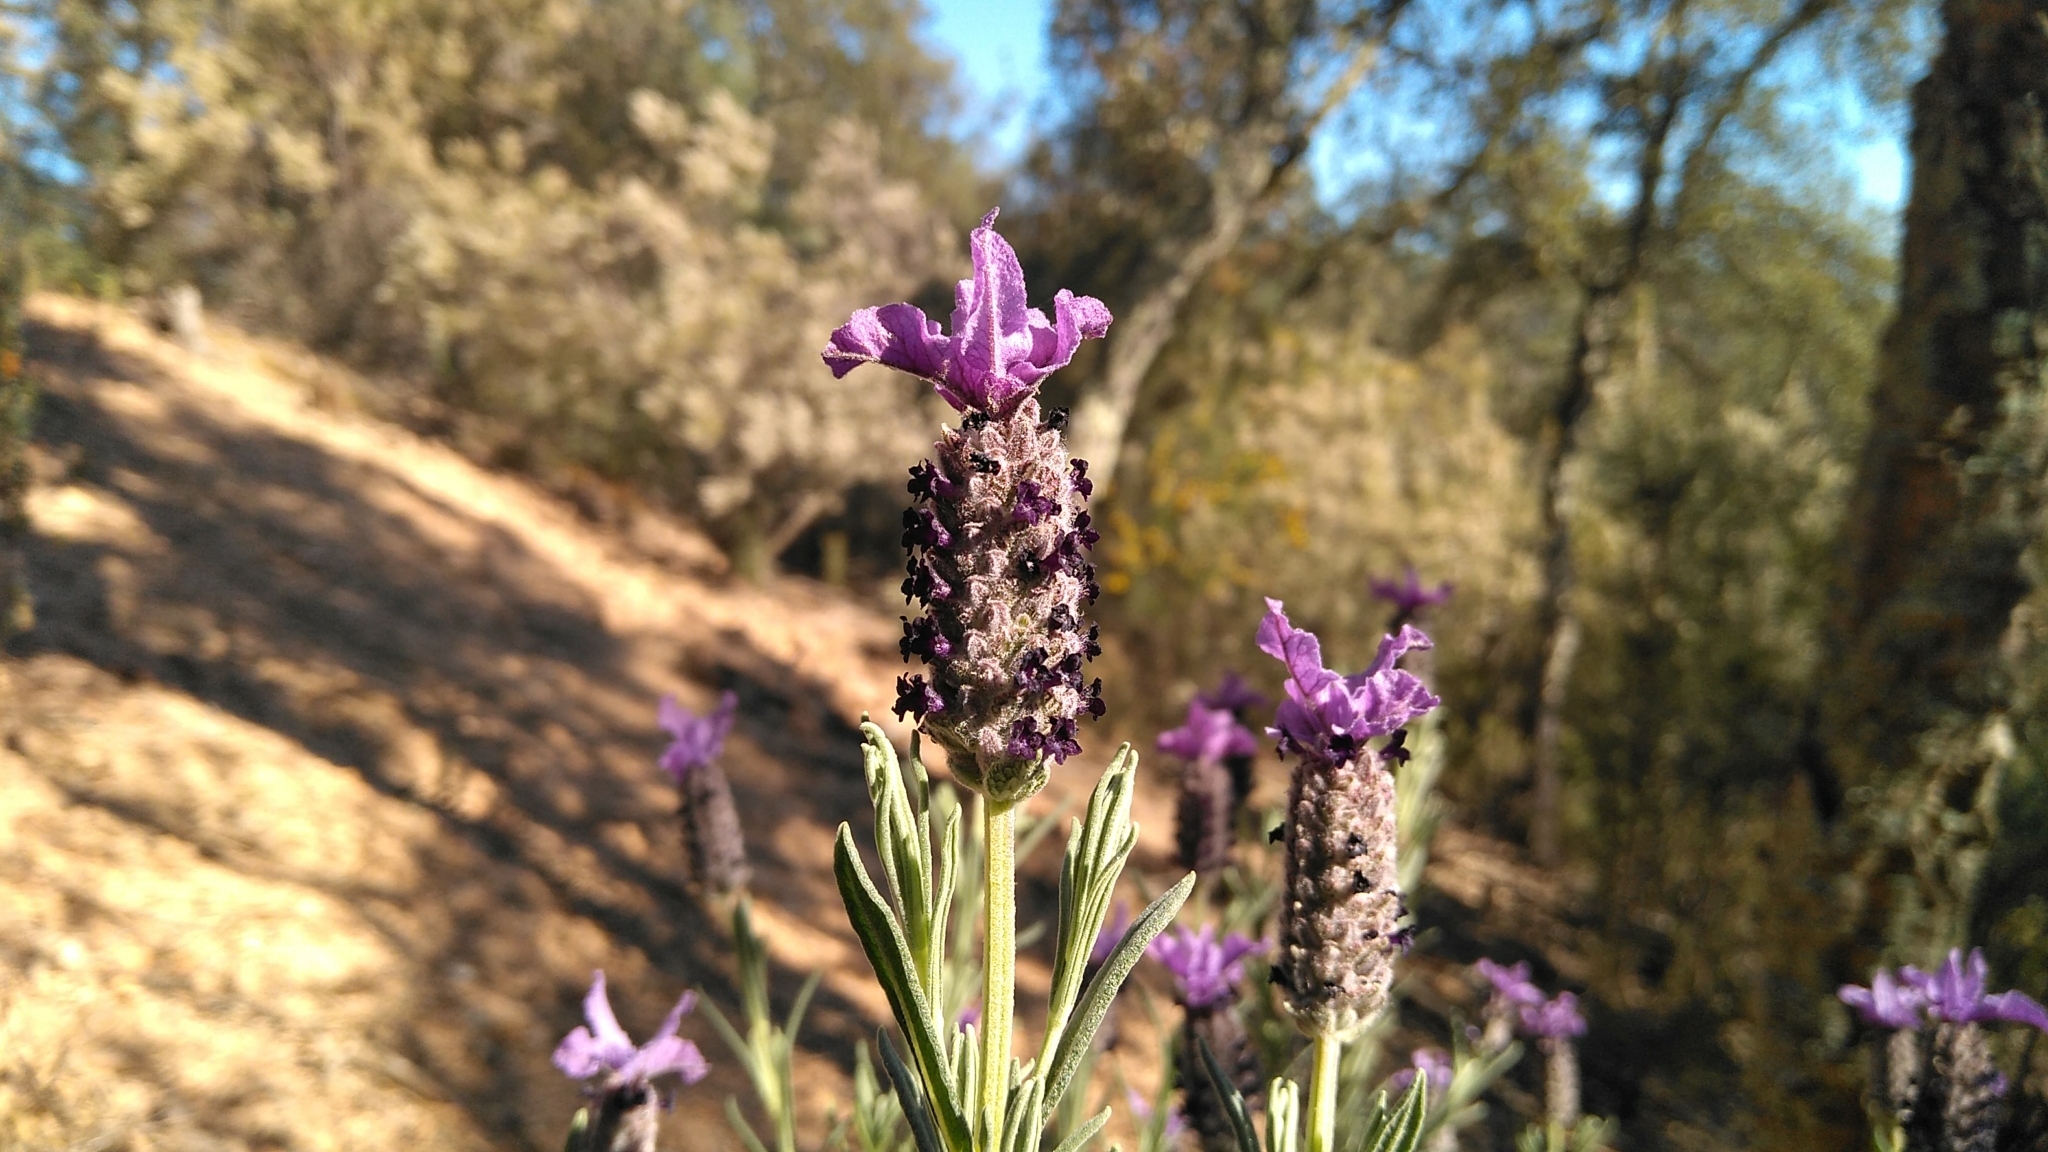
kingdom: Plantae
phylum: Tracheophyta
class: Magnoliopsida
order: Lamiales
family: Lamiaceae
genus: Lavandula
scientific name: Lavandula stoechas
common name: French lavender
